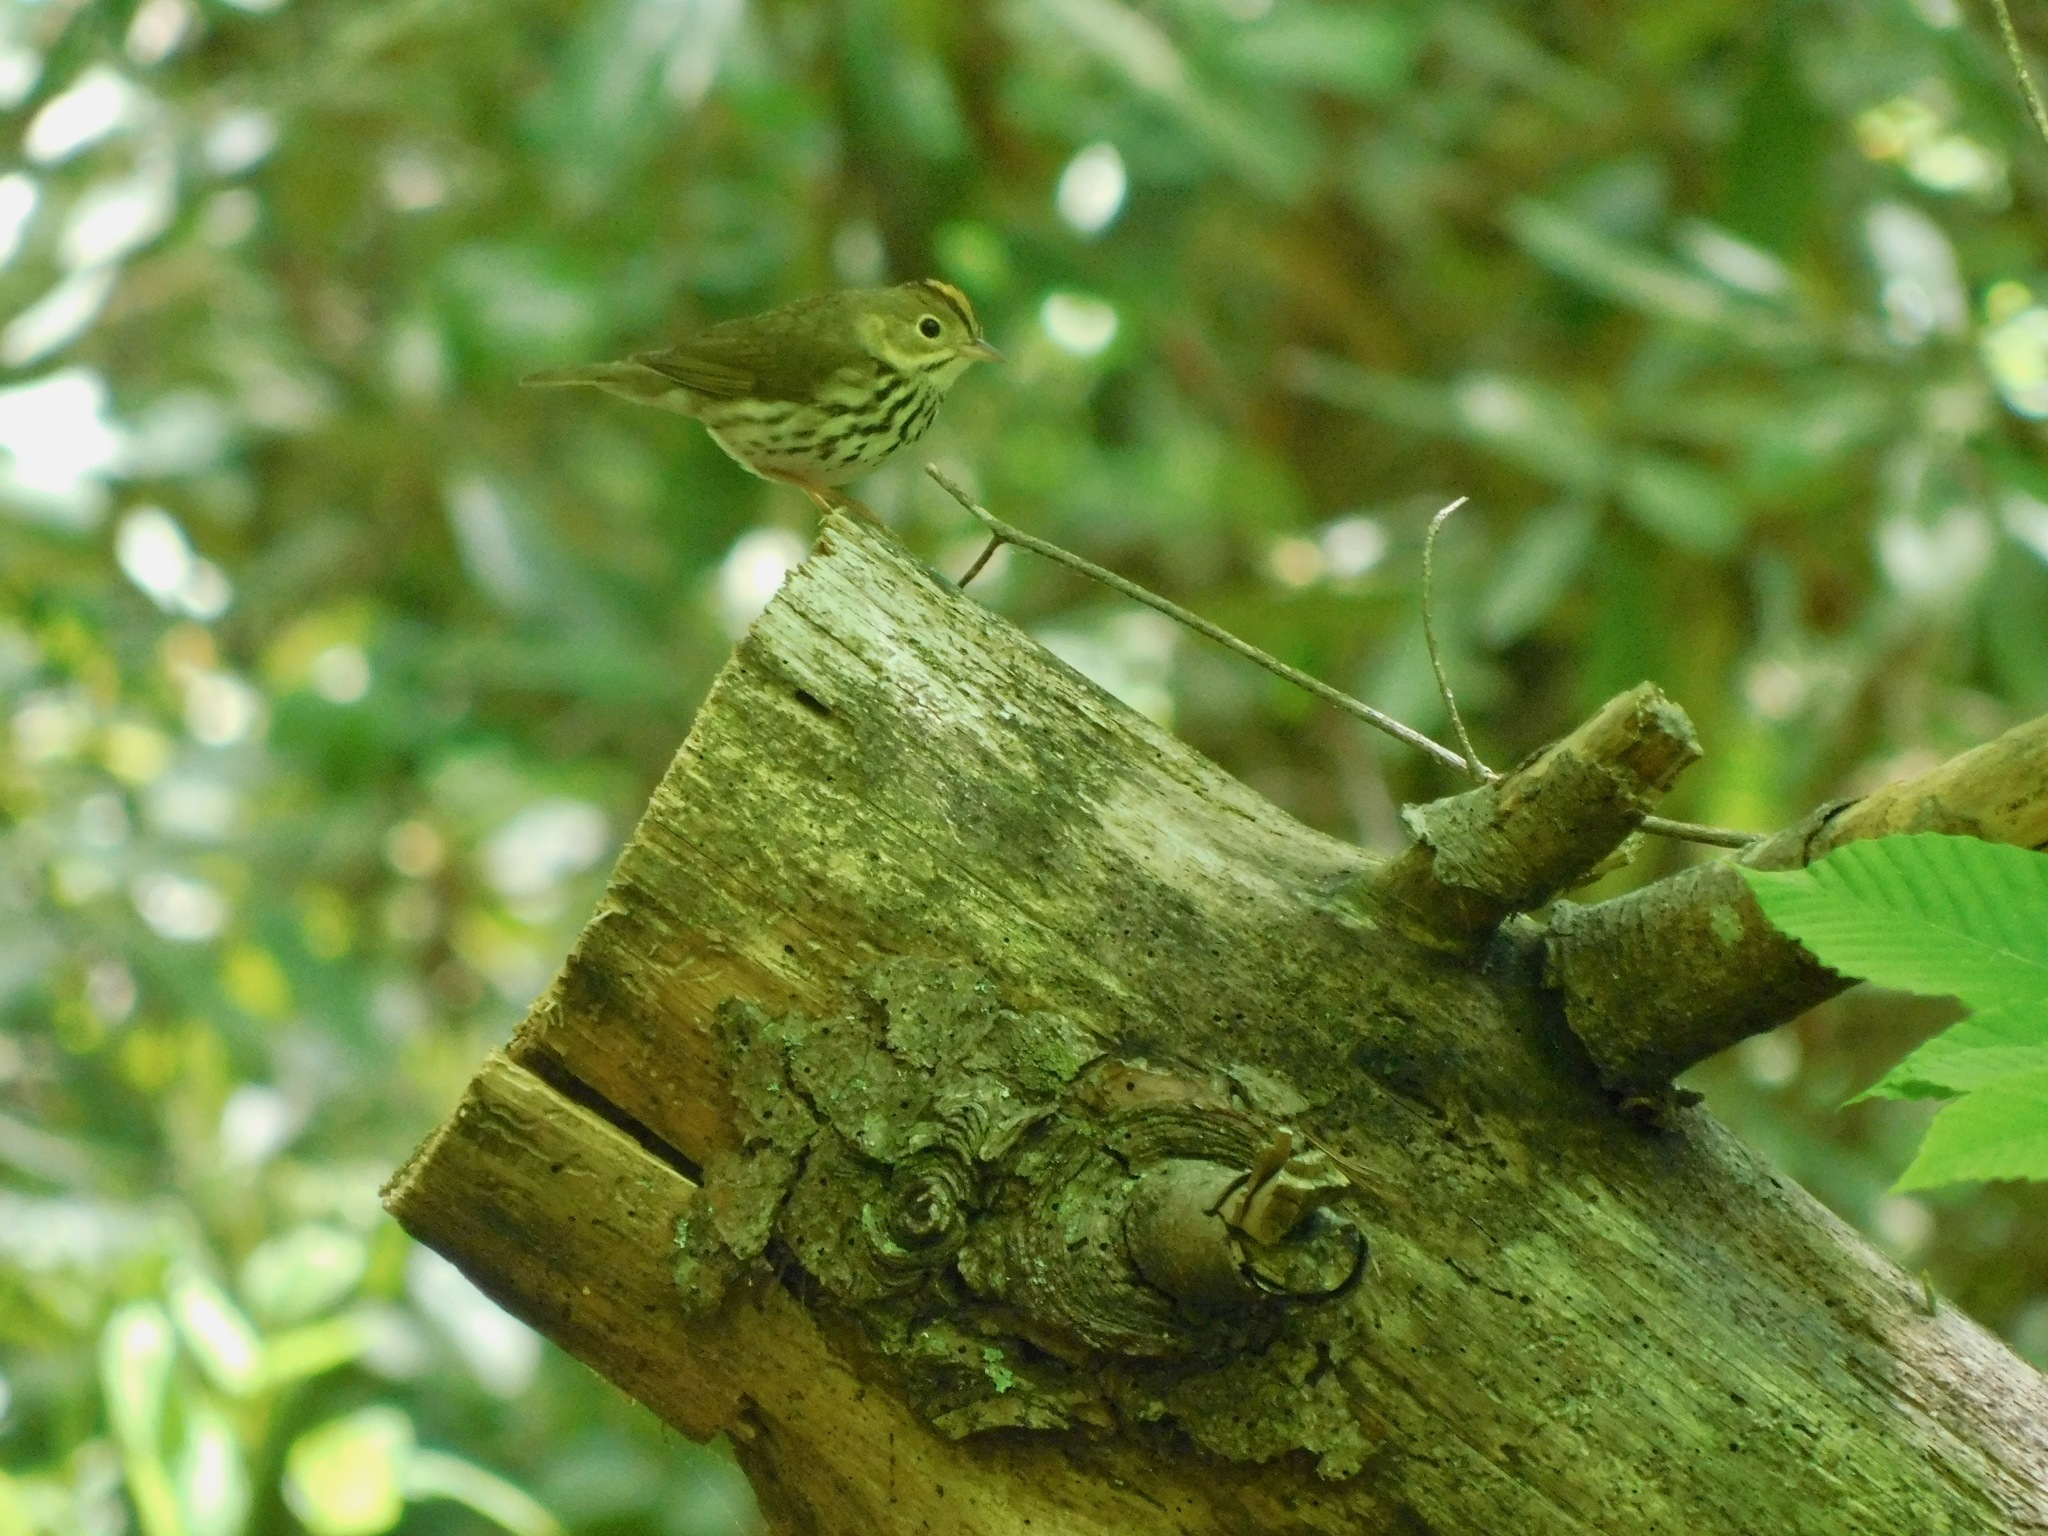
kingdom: Animalia
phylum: Chordata
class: Aves
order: Passeriformes
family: Parulidae
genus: Seiurus
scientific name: Seiurus aurocapilla
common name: Ovenbird
